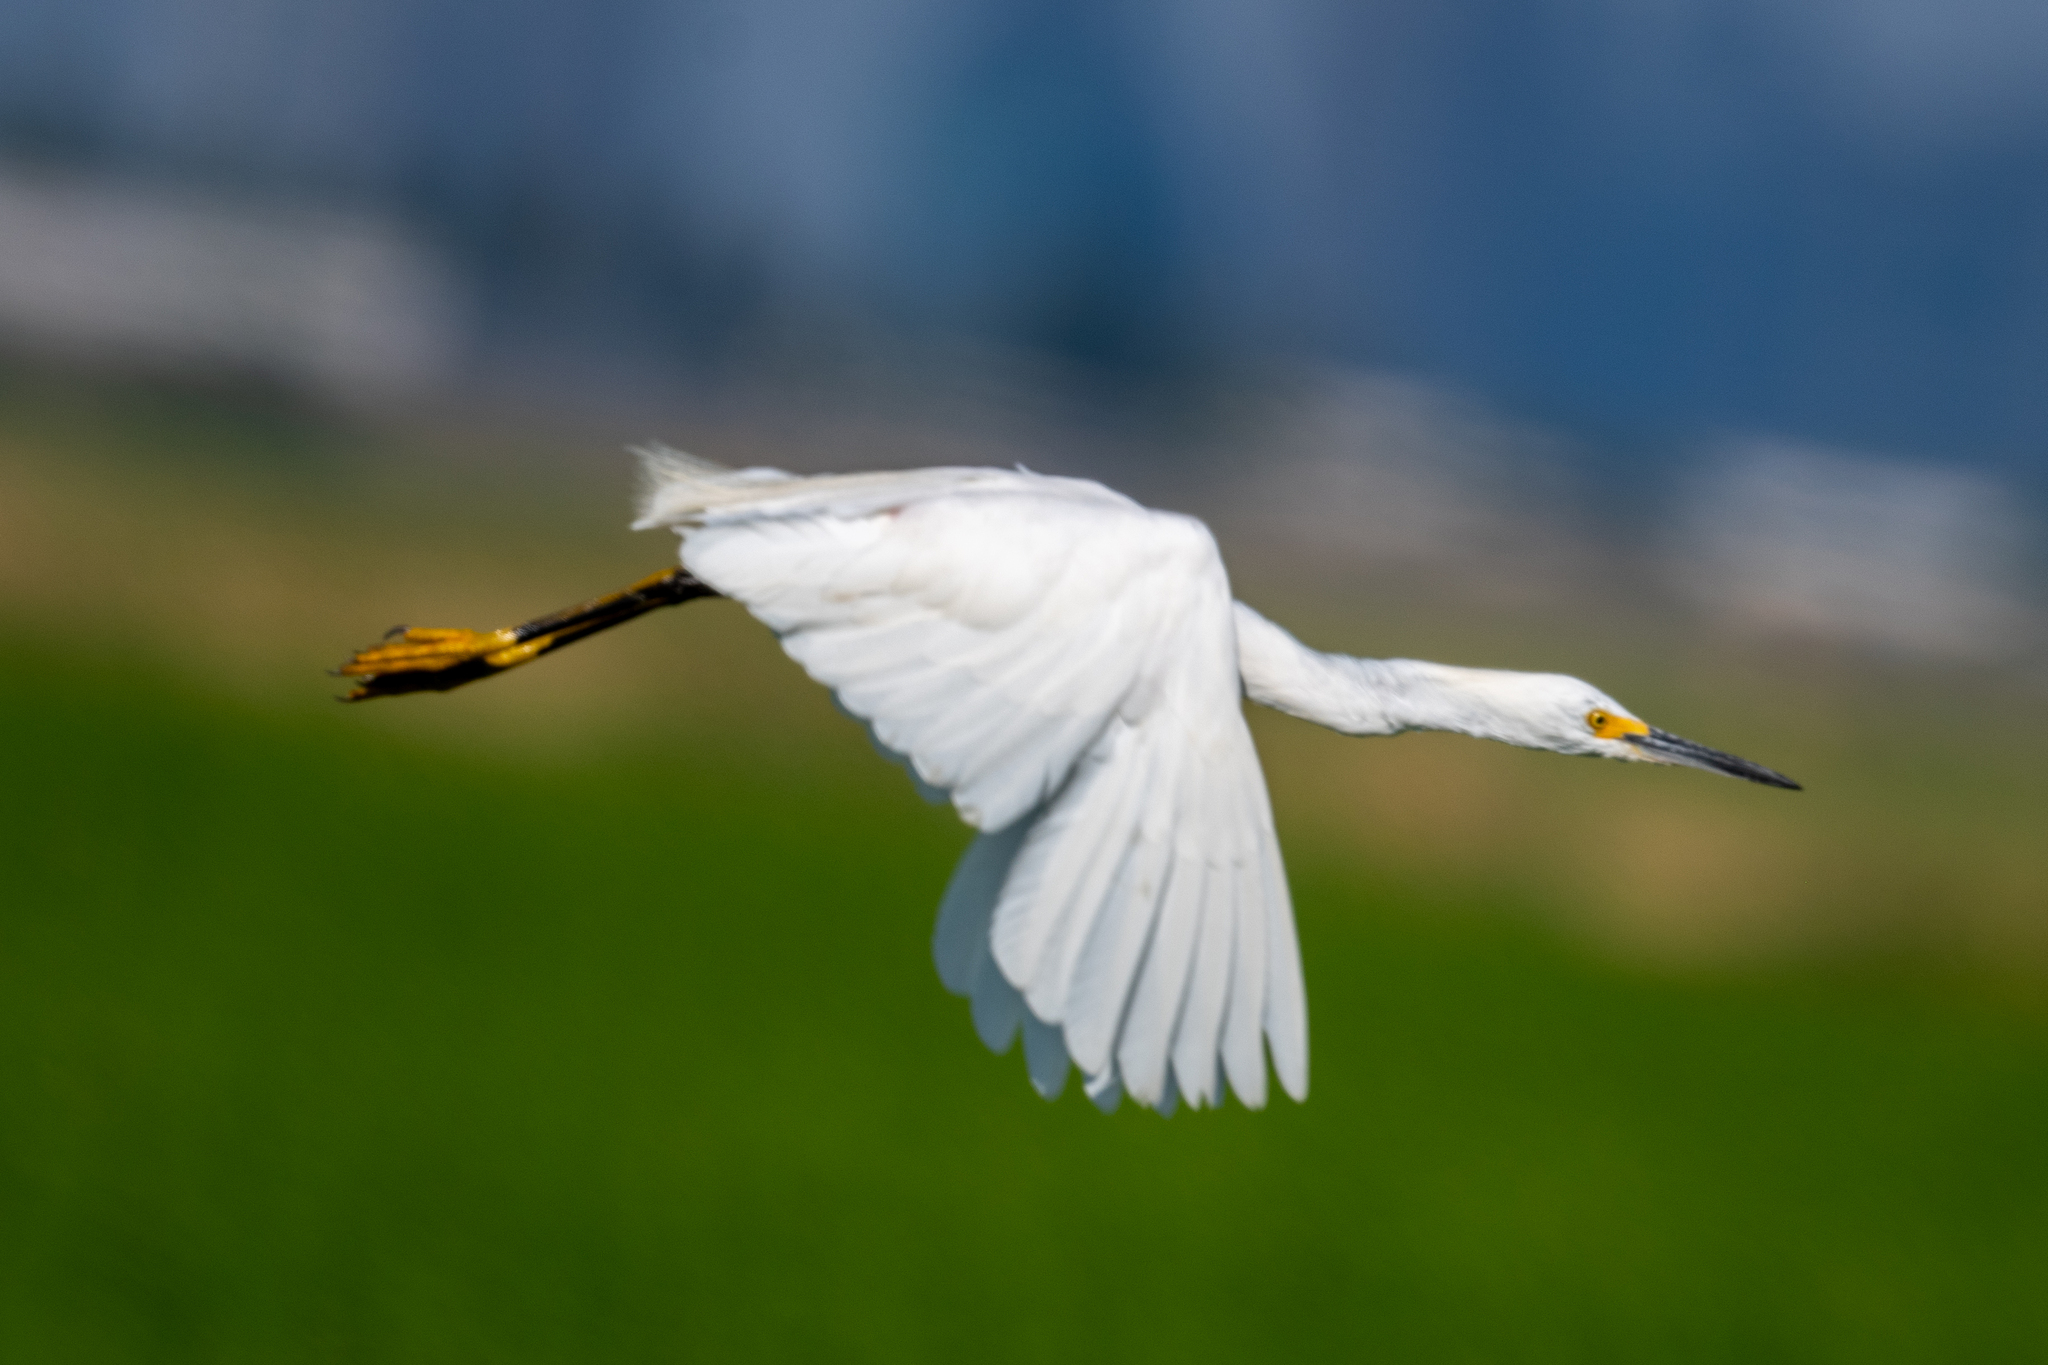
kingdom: Animalia
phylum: Chordata
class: Aves
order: Pelecaniformes
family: Ardeidae
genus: Egretta
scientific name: Egretta thula
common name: Snowy egret
